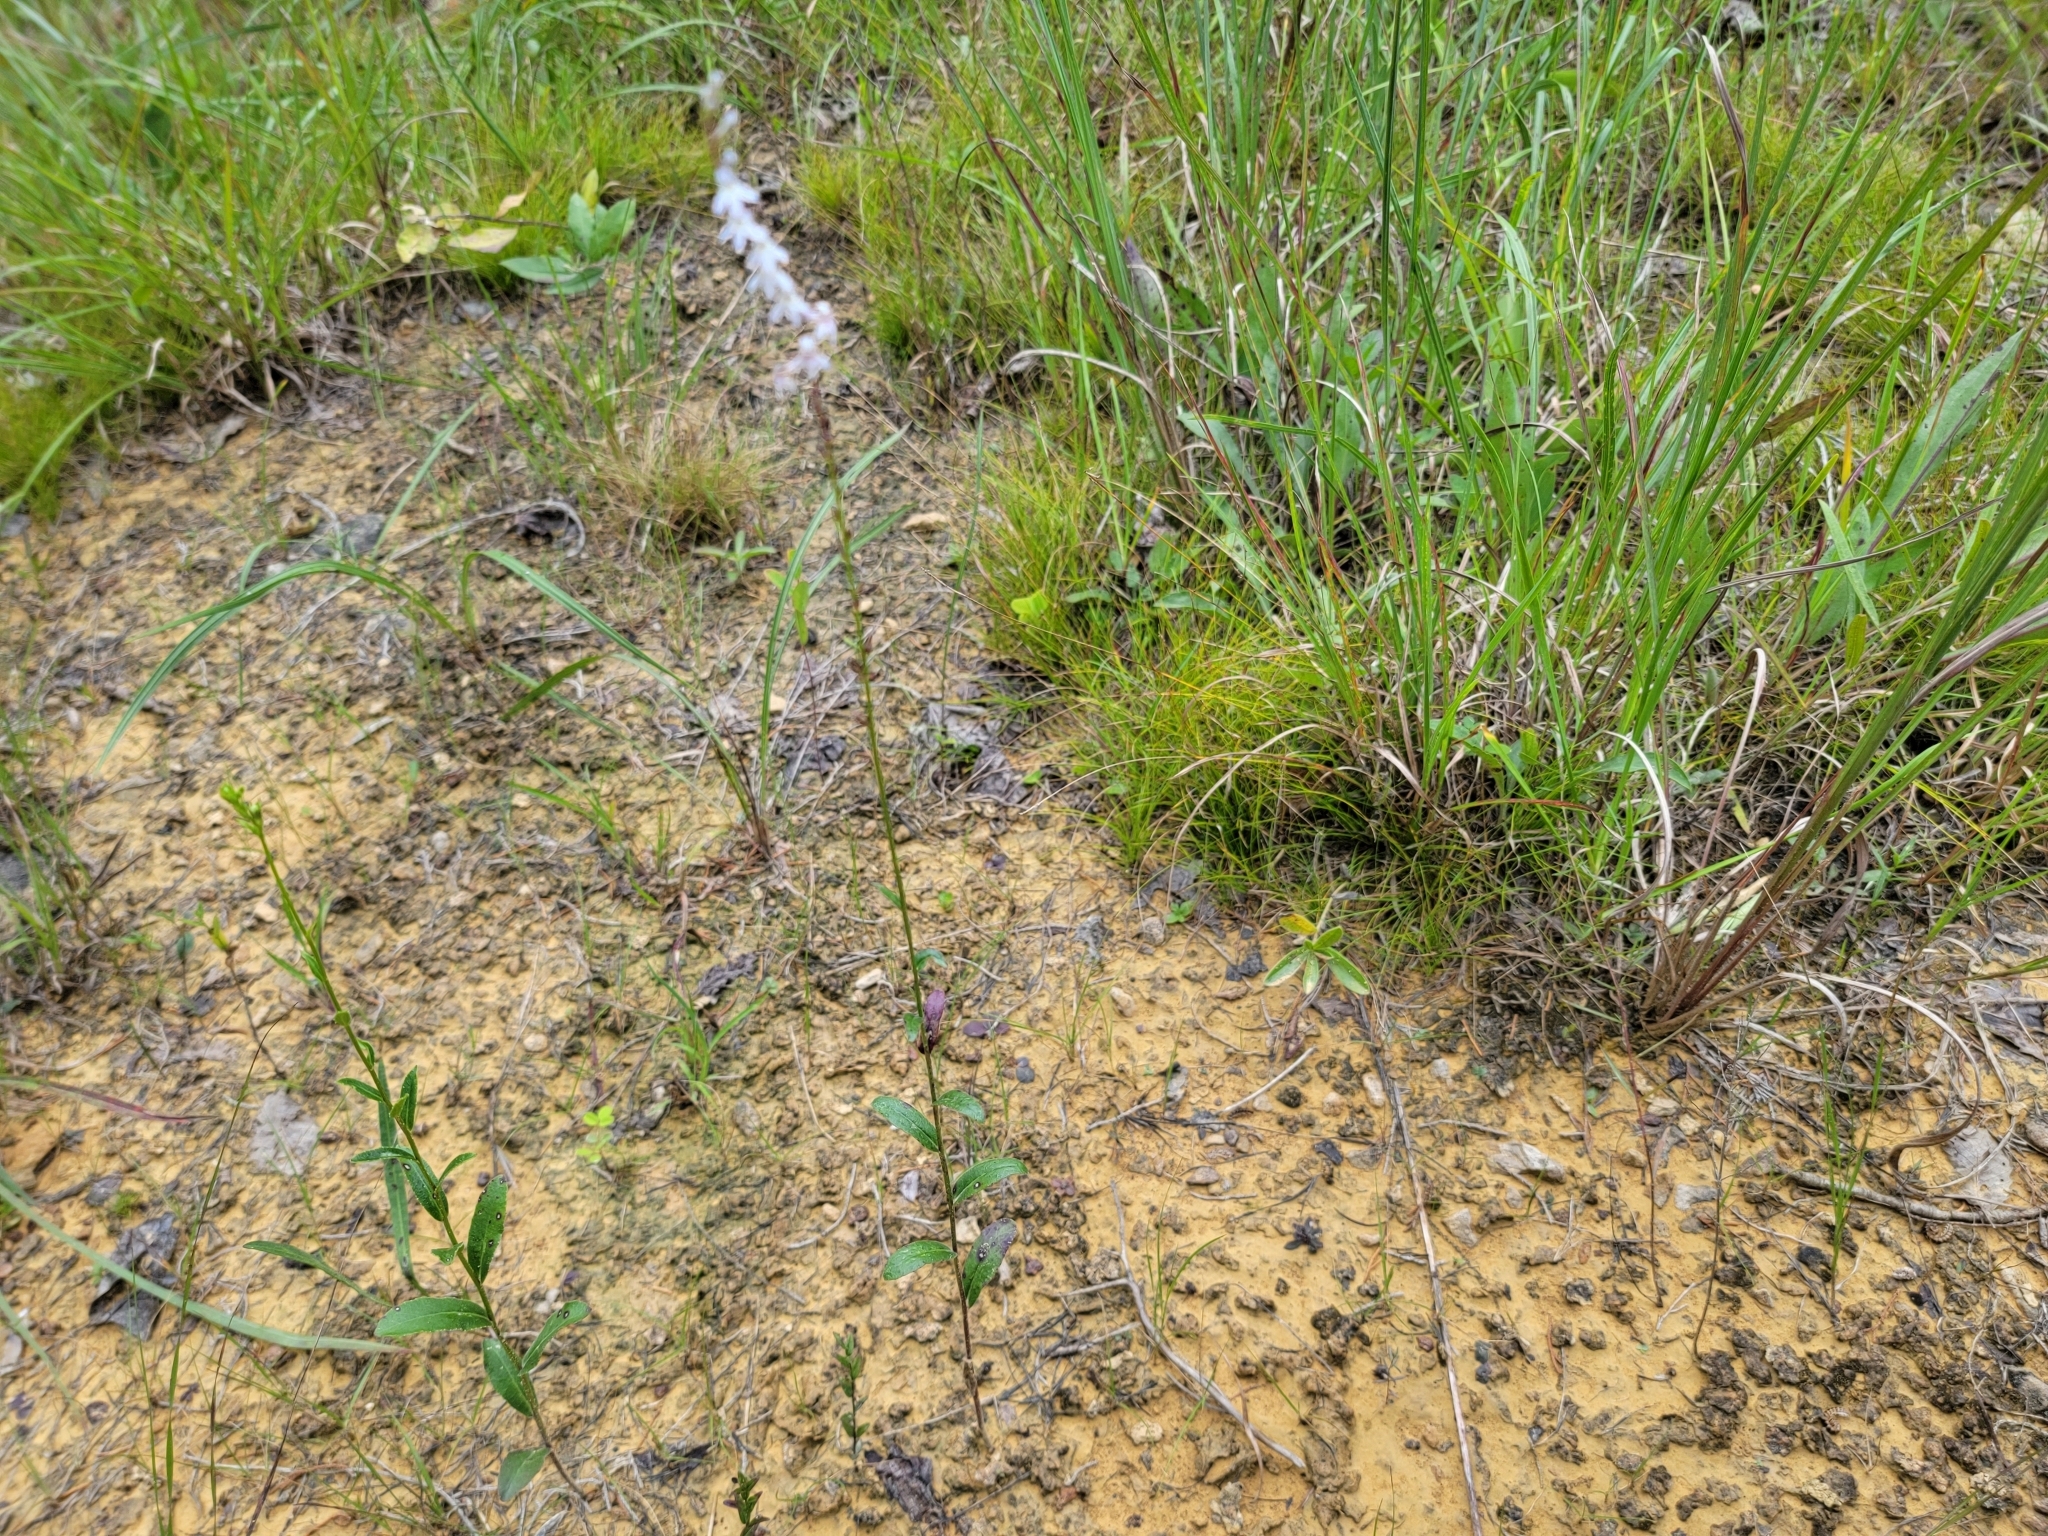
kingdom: Plantae
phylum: Tracheophyta
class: Magnoliopsida
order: Asterales
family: Campanulaceae
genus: Lobelia
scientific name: Lobelia spicata
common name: Pale-spike lobelia
